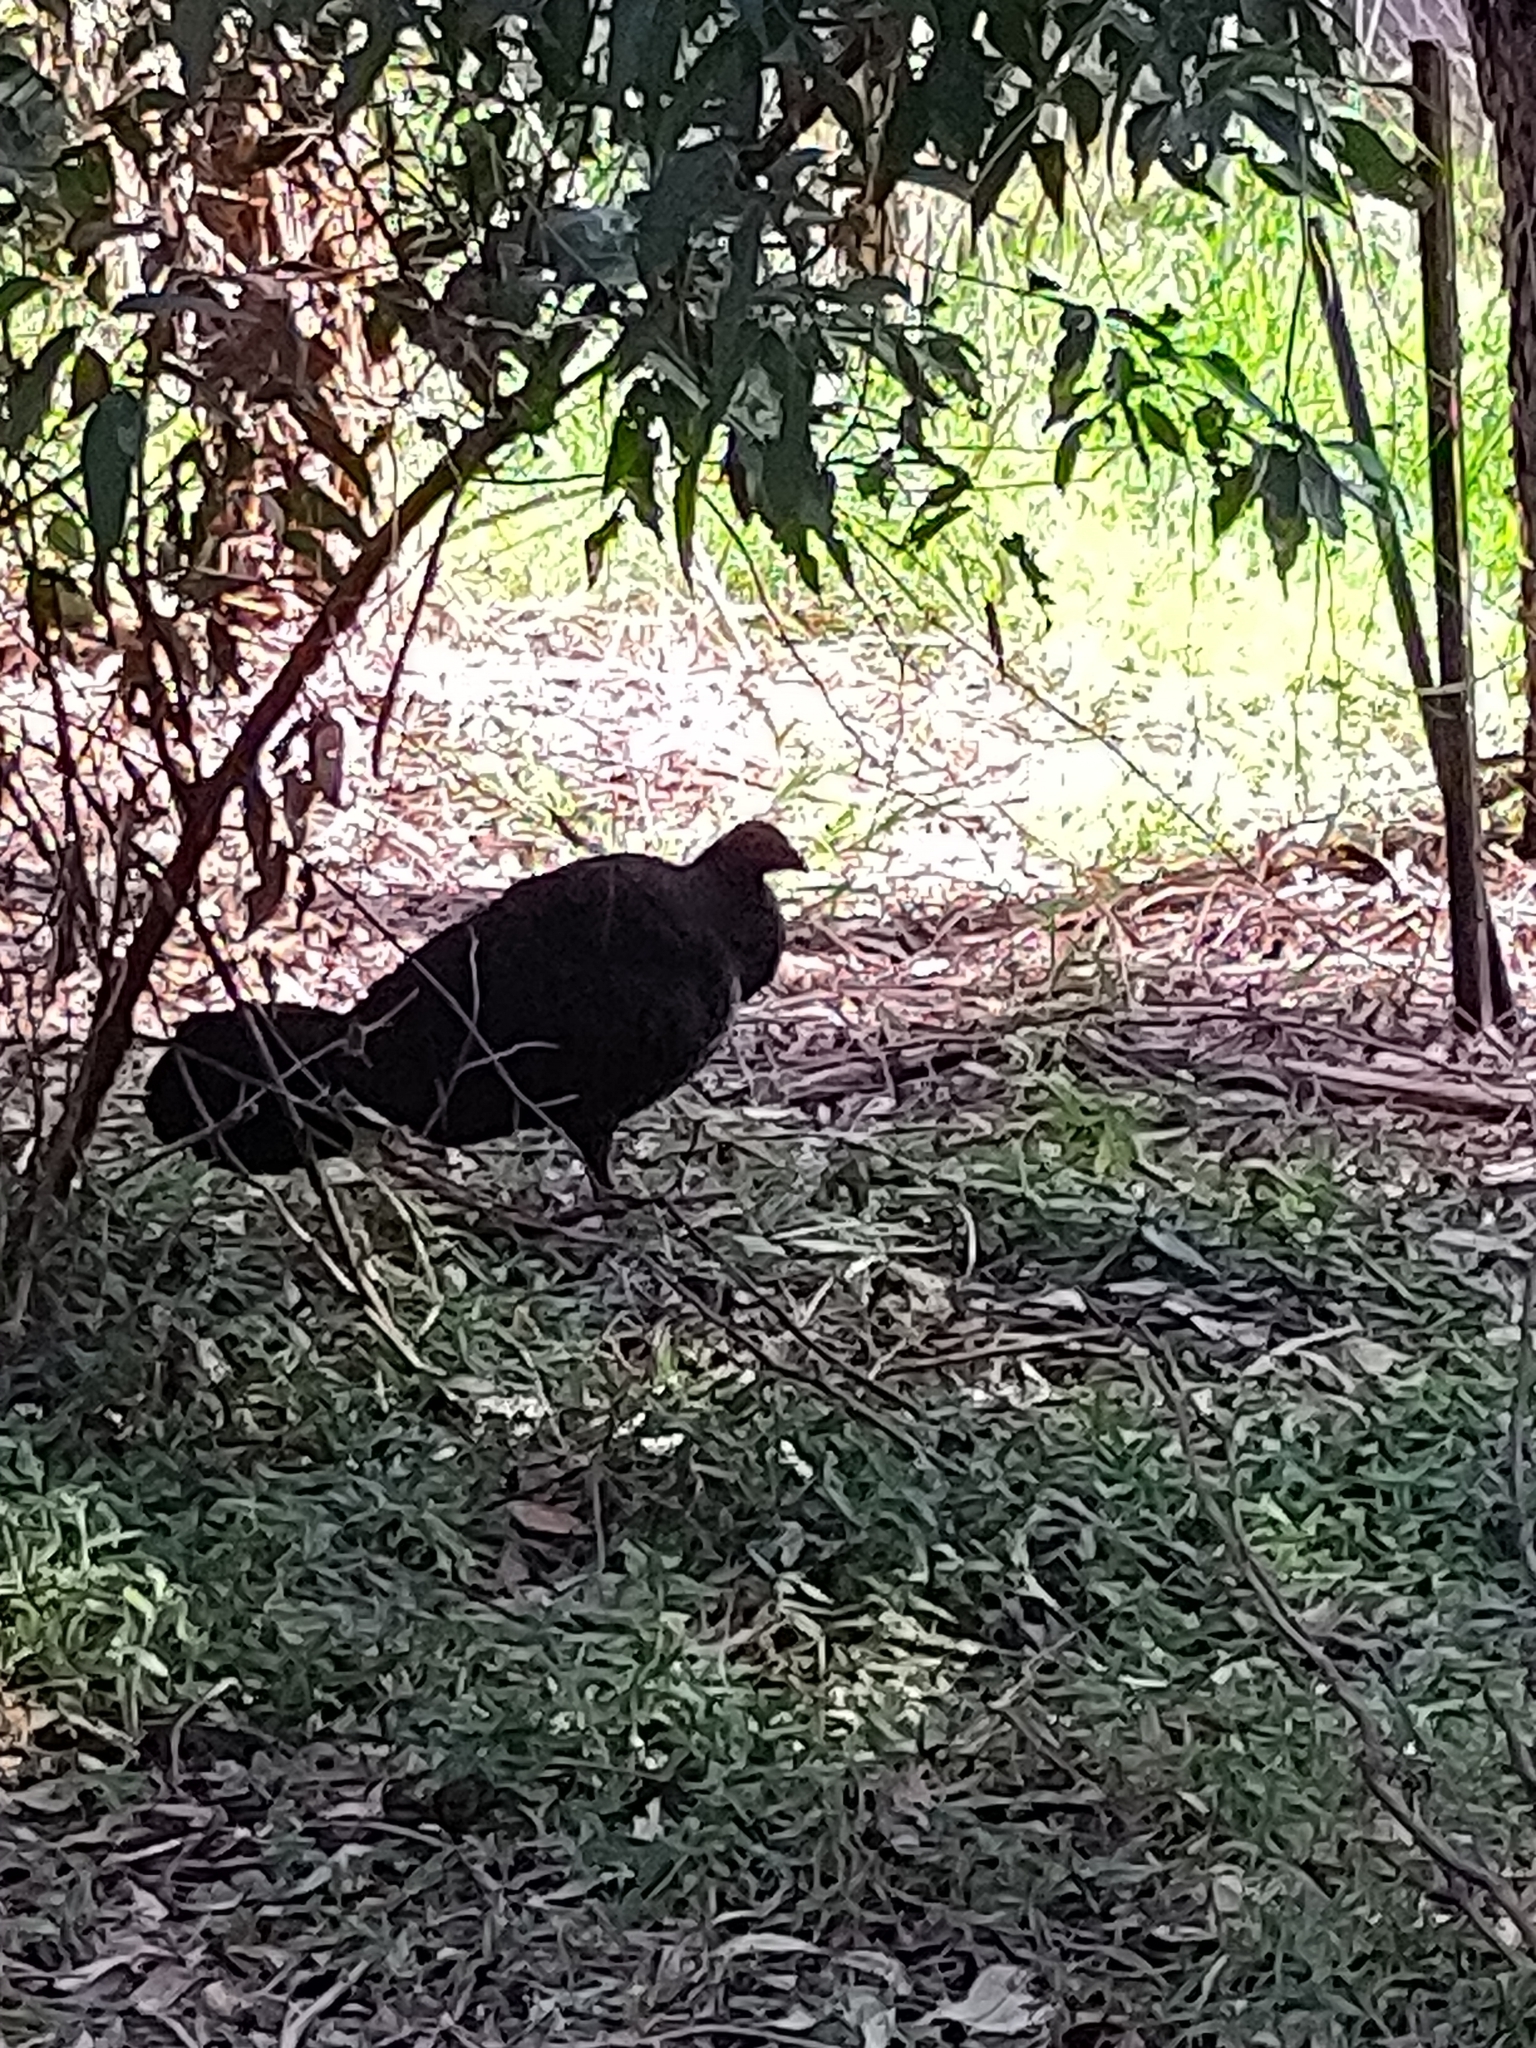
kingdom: Animalia
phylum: Chordata
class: Aves
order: Galliformes
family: Megapodiidae
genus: Alectura
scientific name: Alectura lathami
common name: Australian brushturkey
